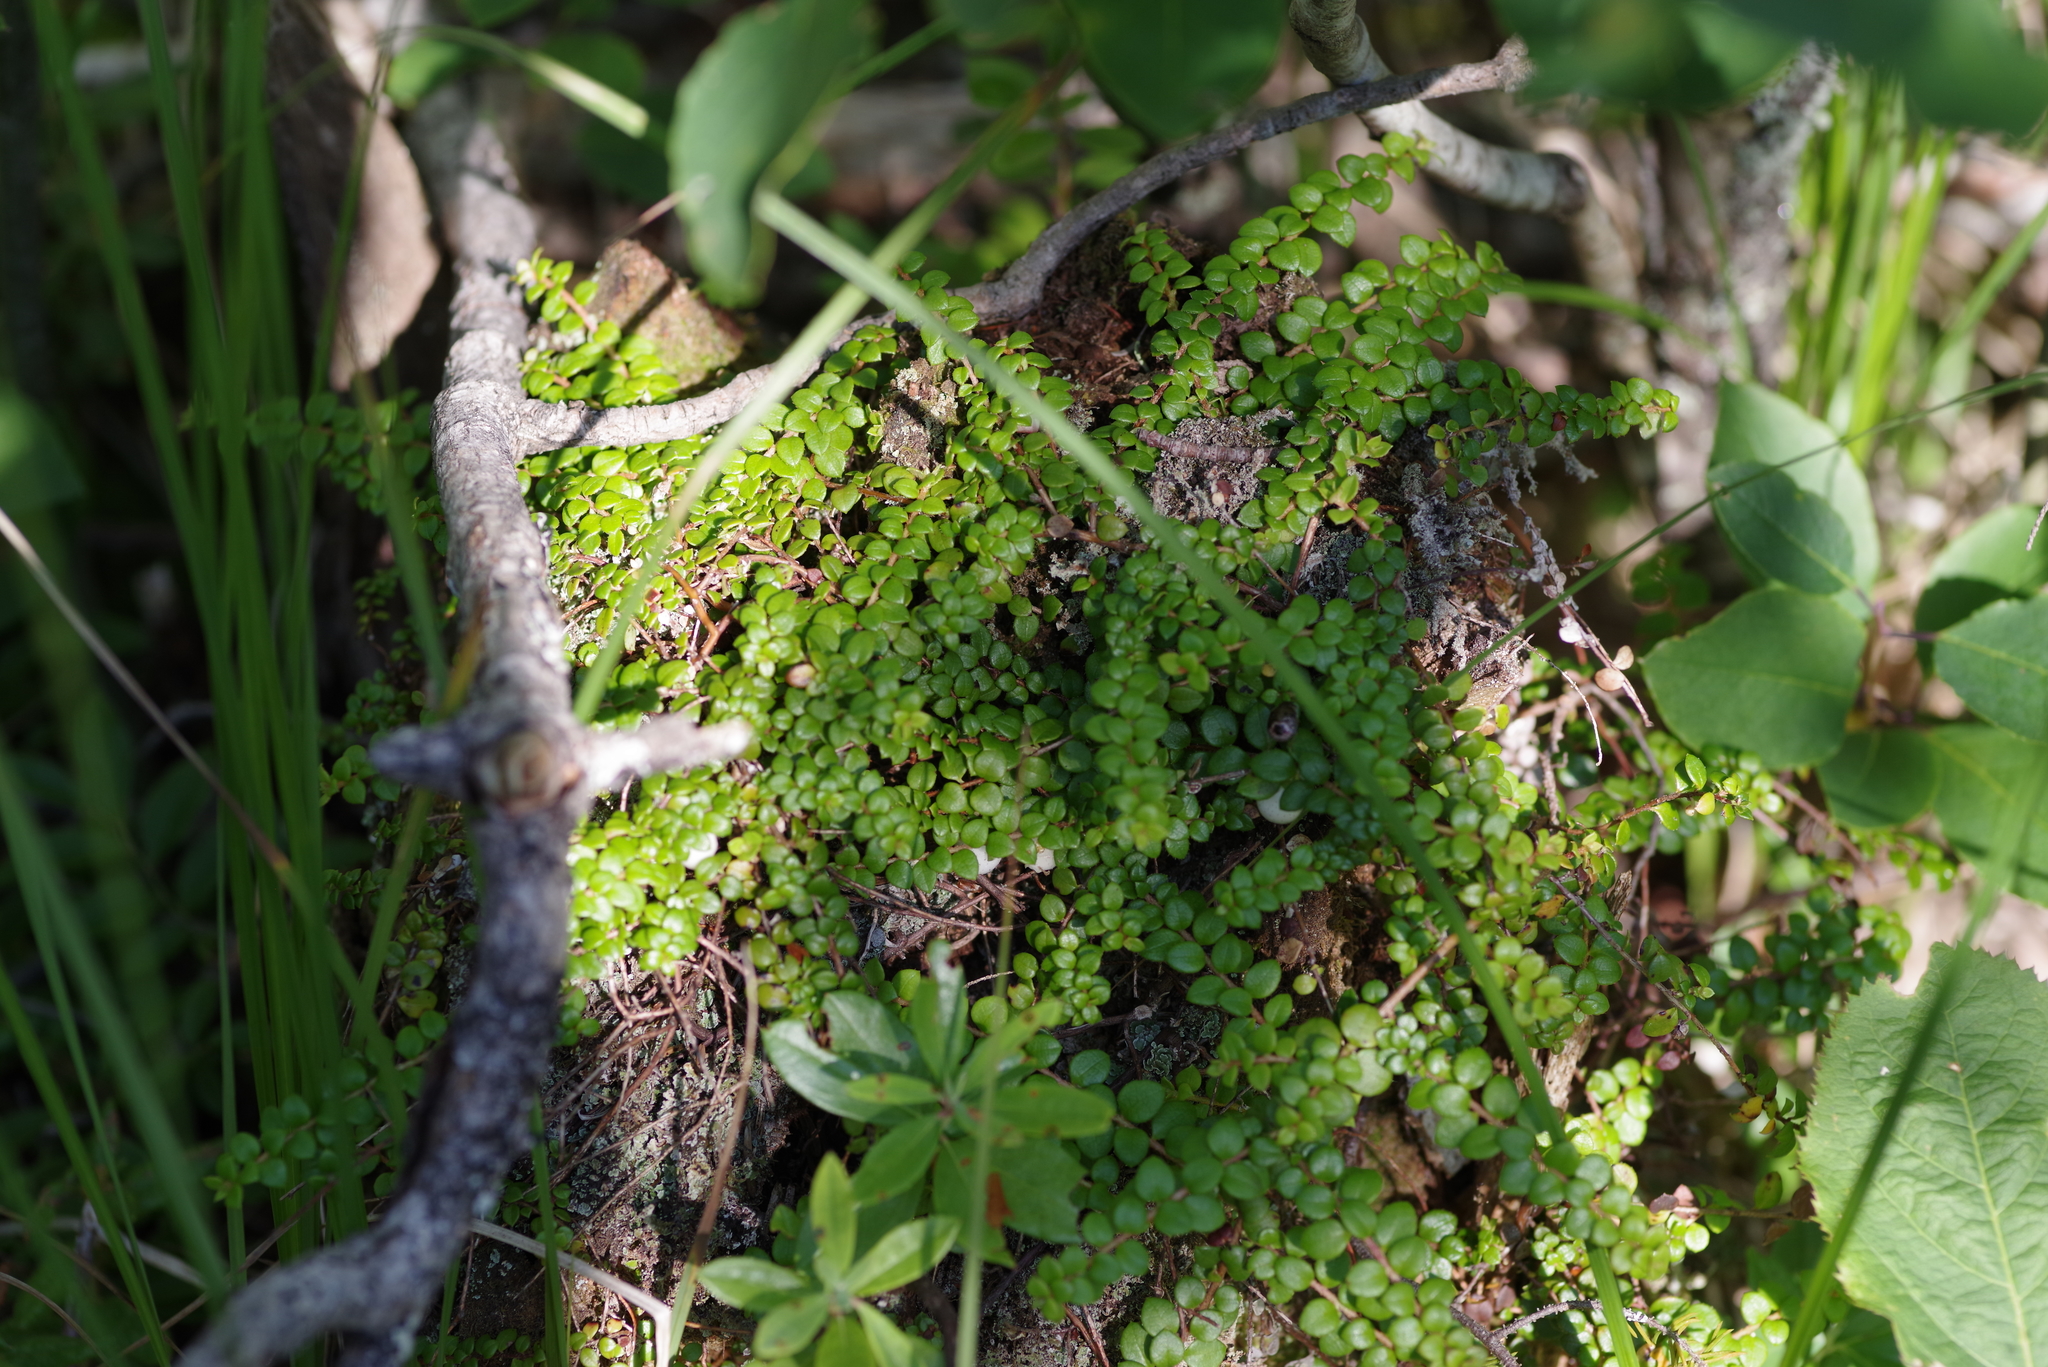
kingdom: Plantae
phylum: Tracheophyta
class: Magnoliopsida
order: Ericales
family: Ericaceae
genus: Gaultheria
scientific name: Gaultheria hispidula
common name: Cancer wintergreen
